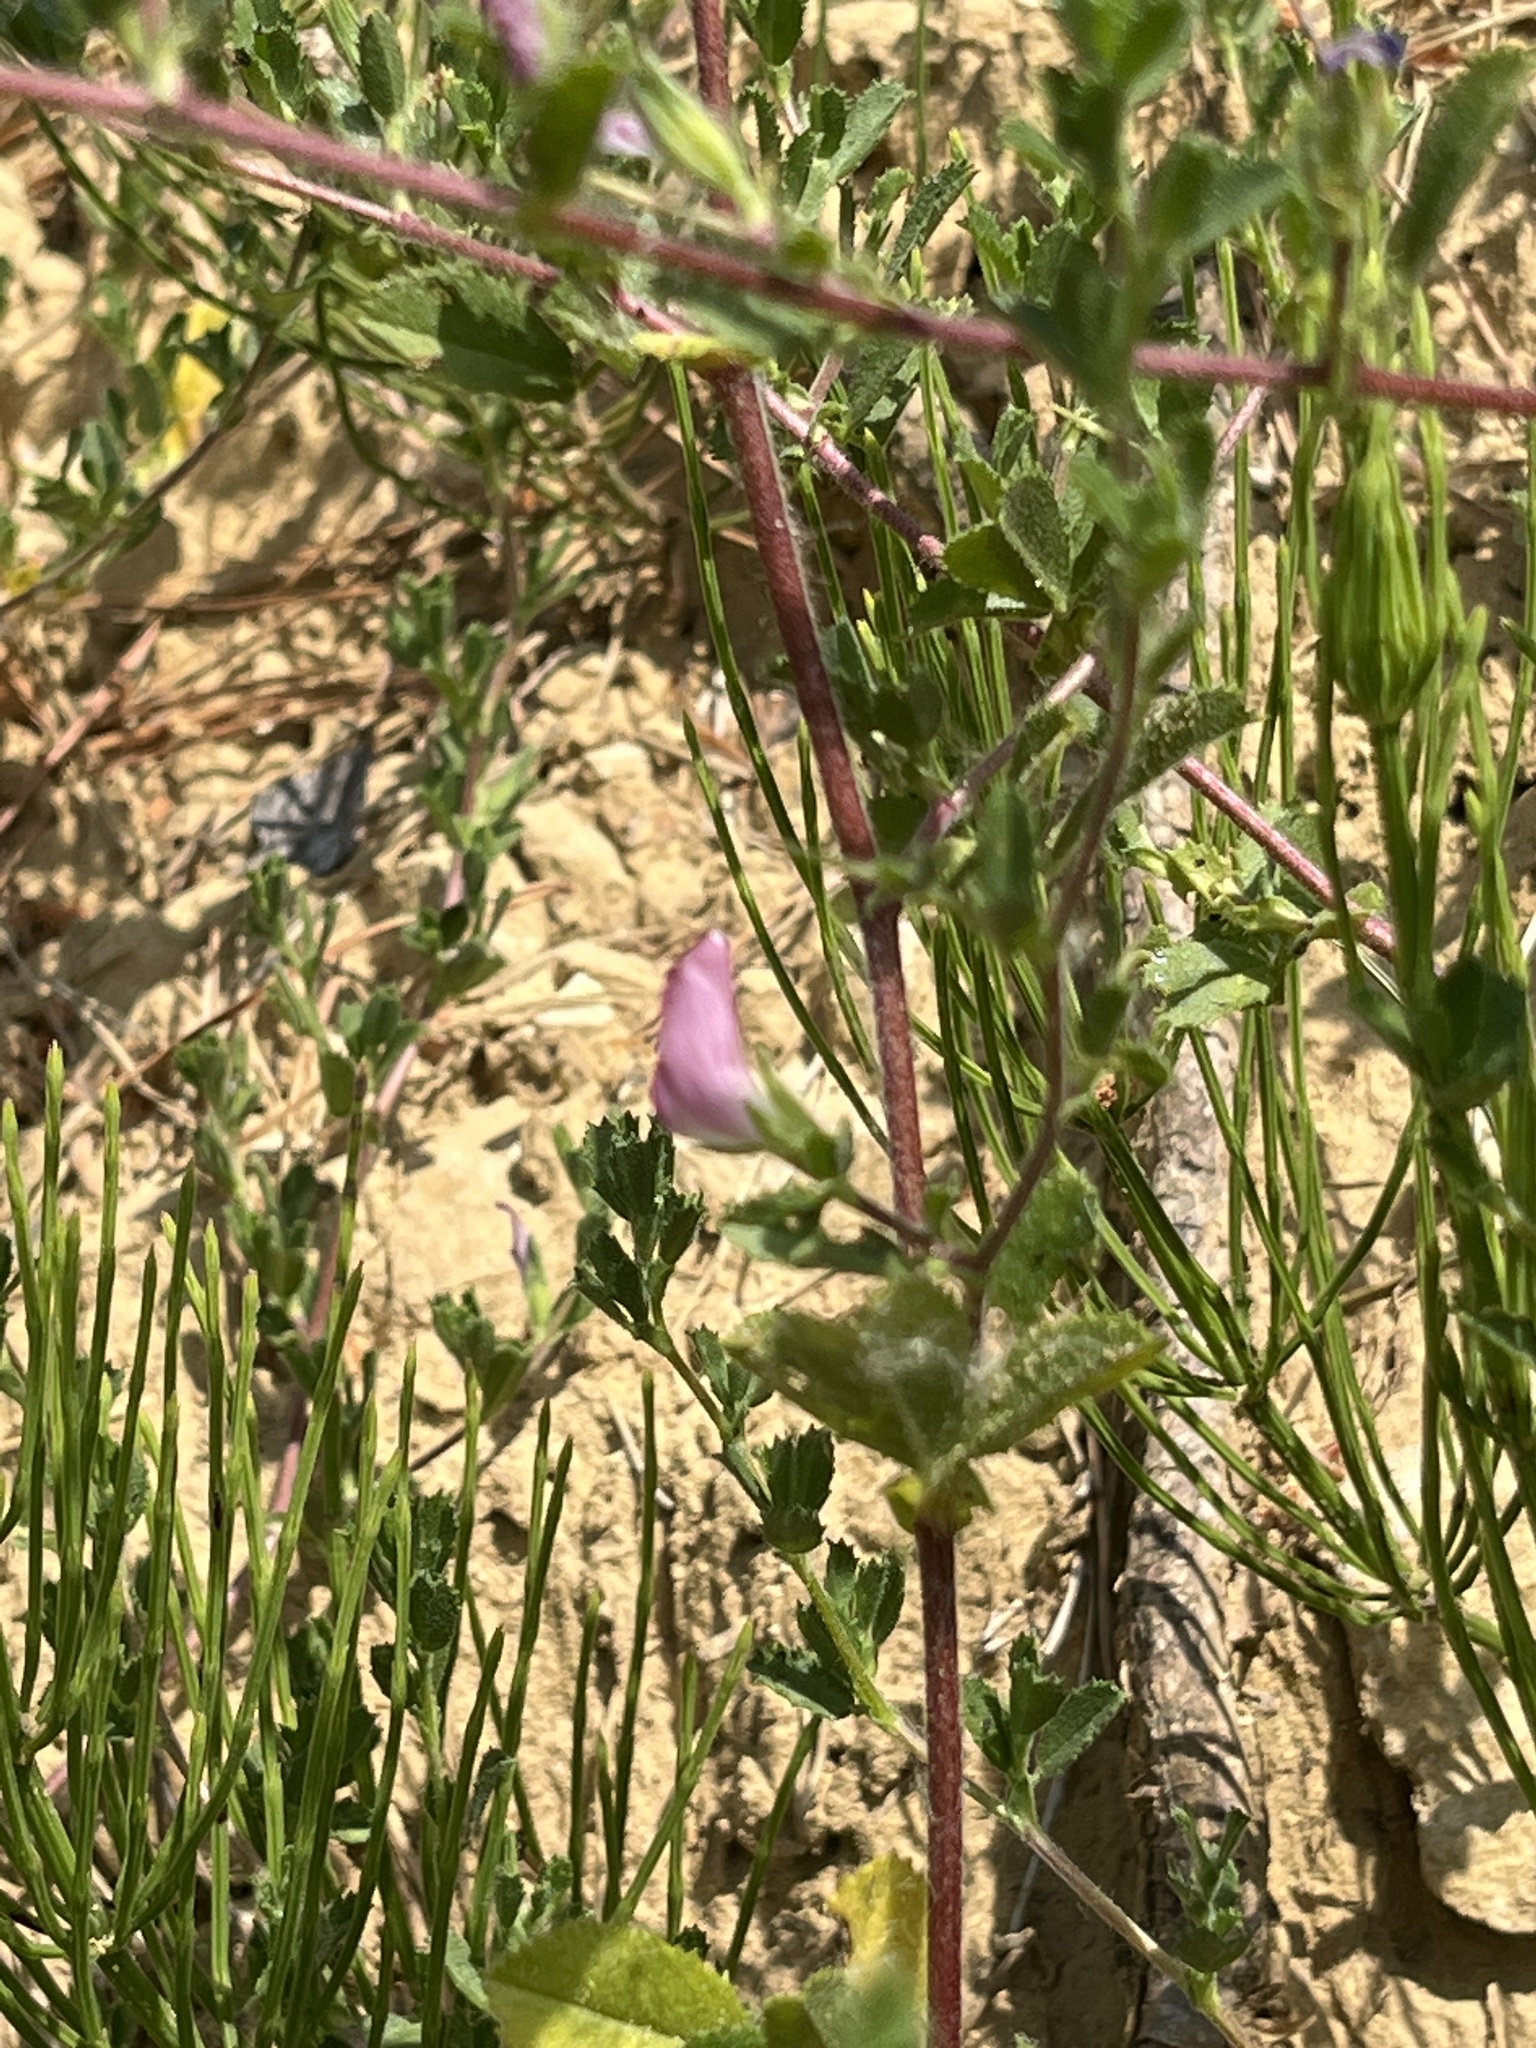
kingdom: Plantae
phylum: Tracheophyta
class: Magnoliopsida
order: Fabales
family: Fabaceae
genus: Ononis
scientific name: Ononis spinosa
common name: Spiny restharrow
